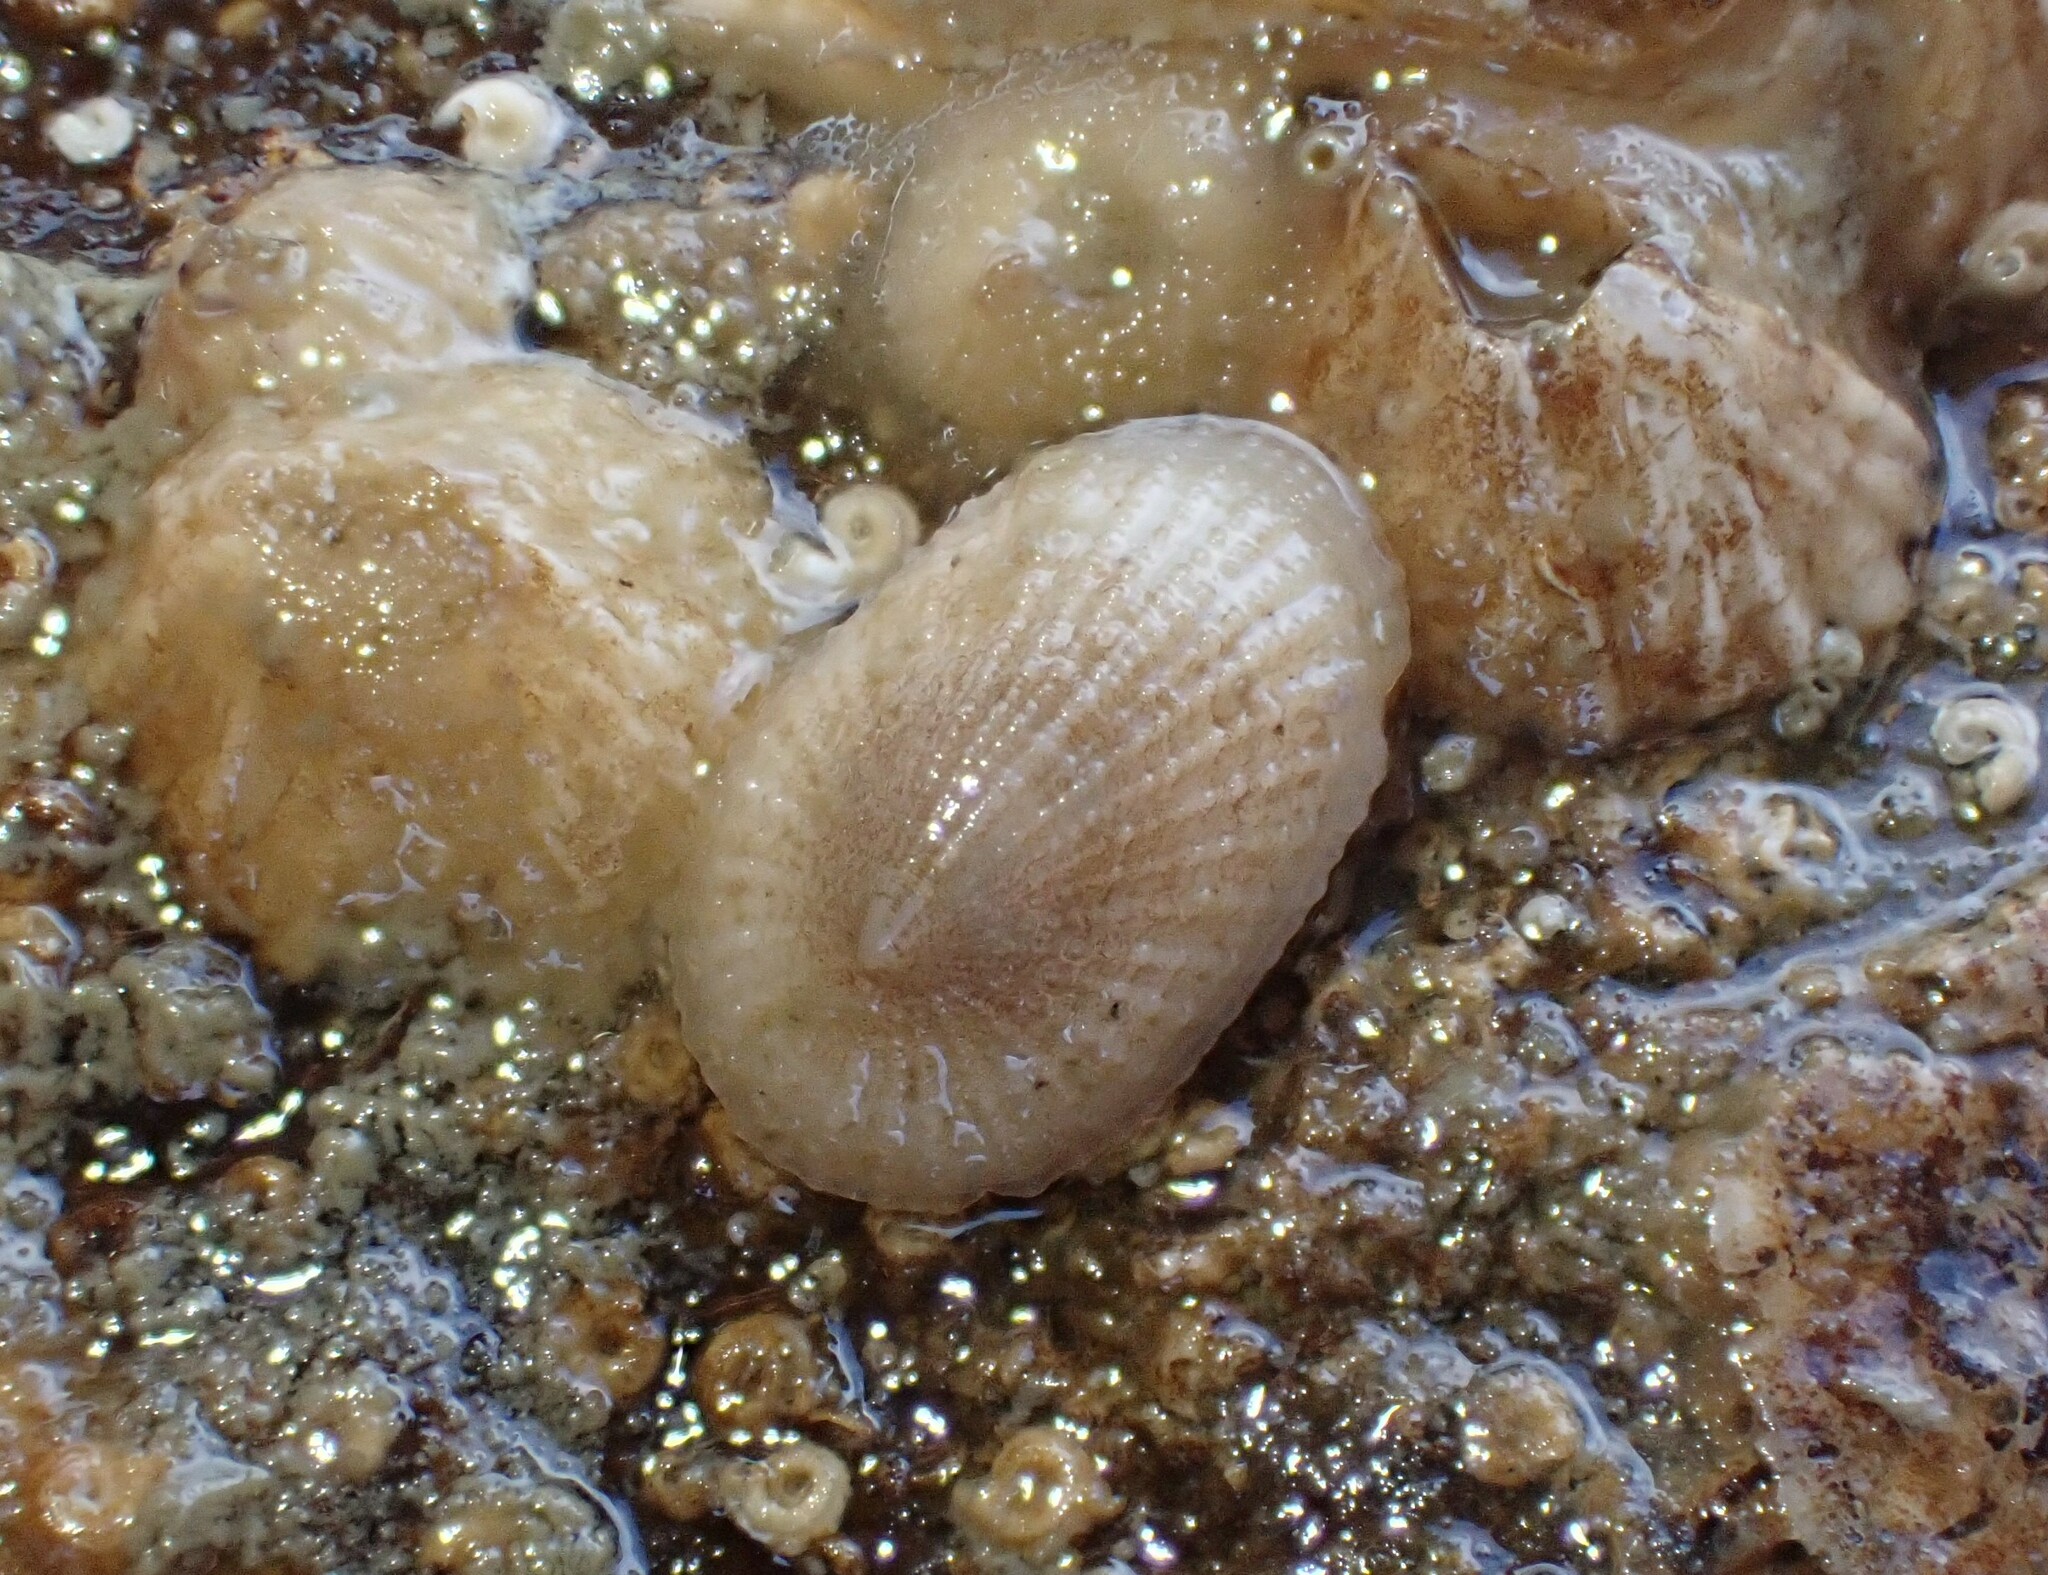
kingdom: Animalia
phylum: Mollusca
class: Gastropoda
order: Lepetellida
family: Fissurellidae
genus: Tugali
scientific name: Tugali suteri
